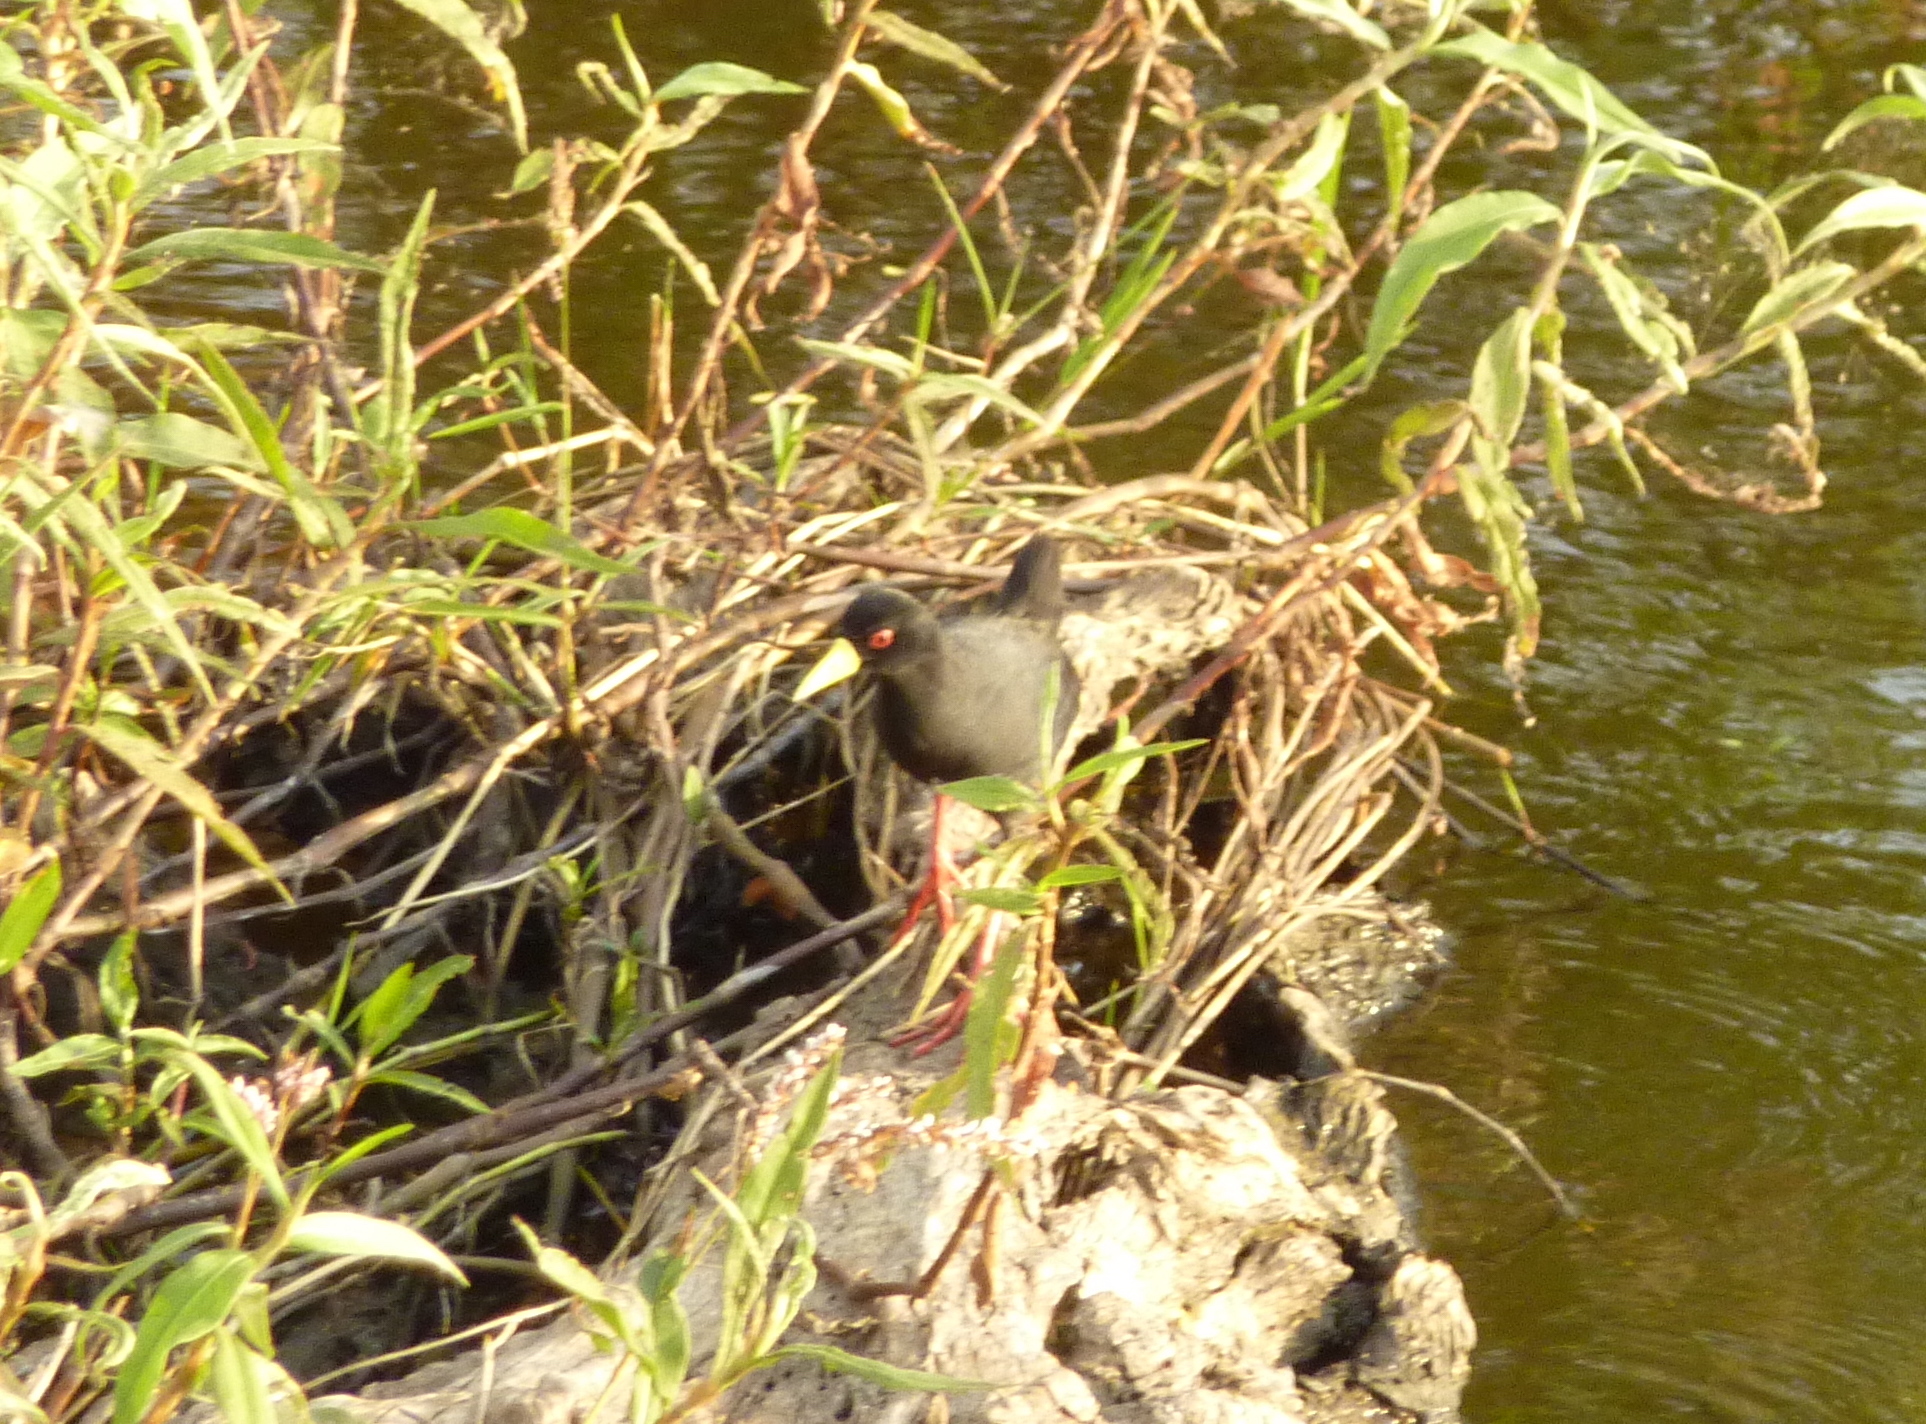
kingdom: Animalia
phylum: Chordata
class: Aves
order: Gruiformes
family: Rallidae
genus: Amaurornis
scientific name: Amaurornis flavirostra
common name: Black crake
